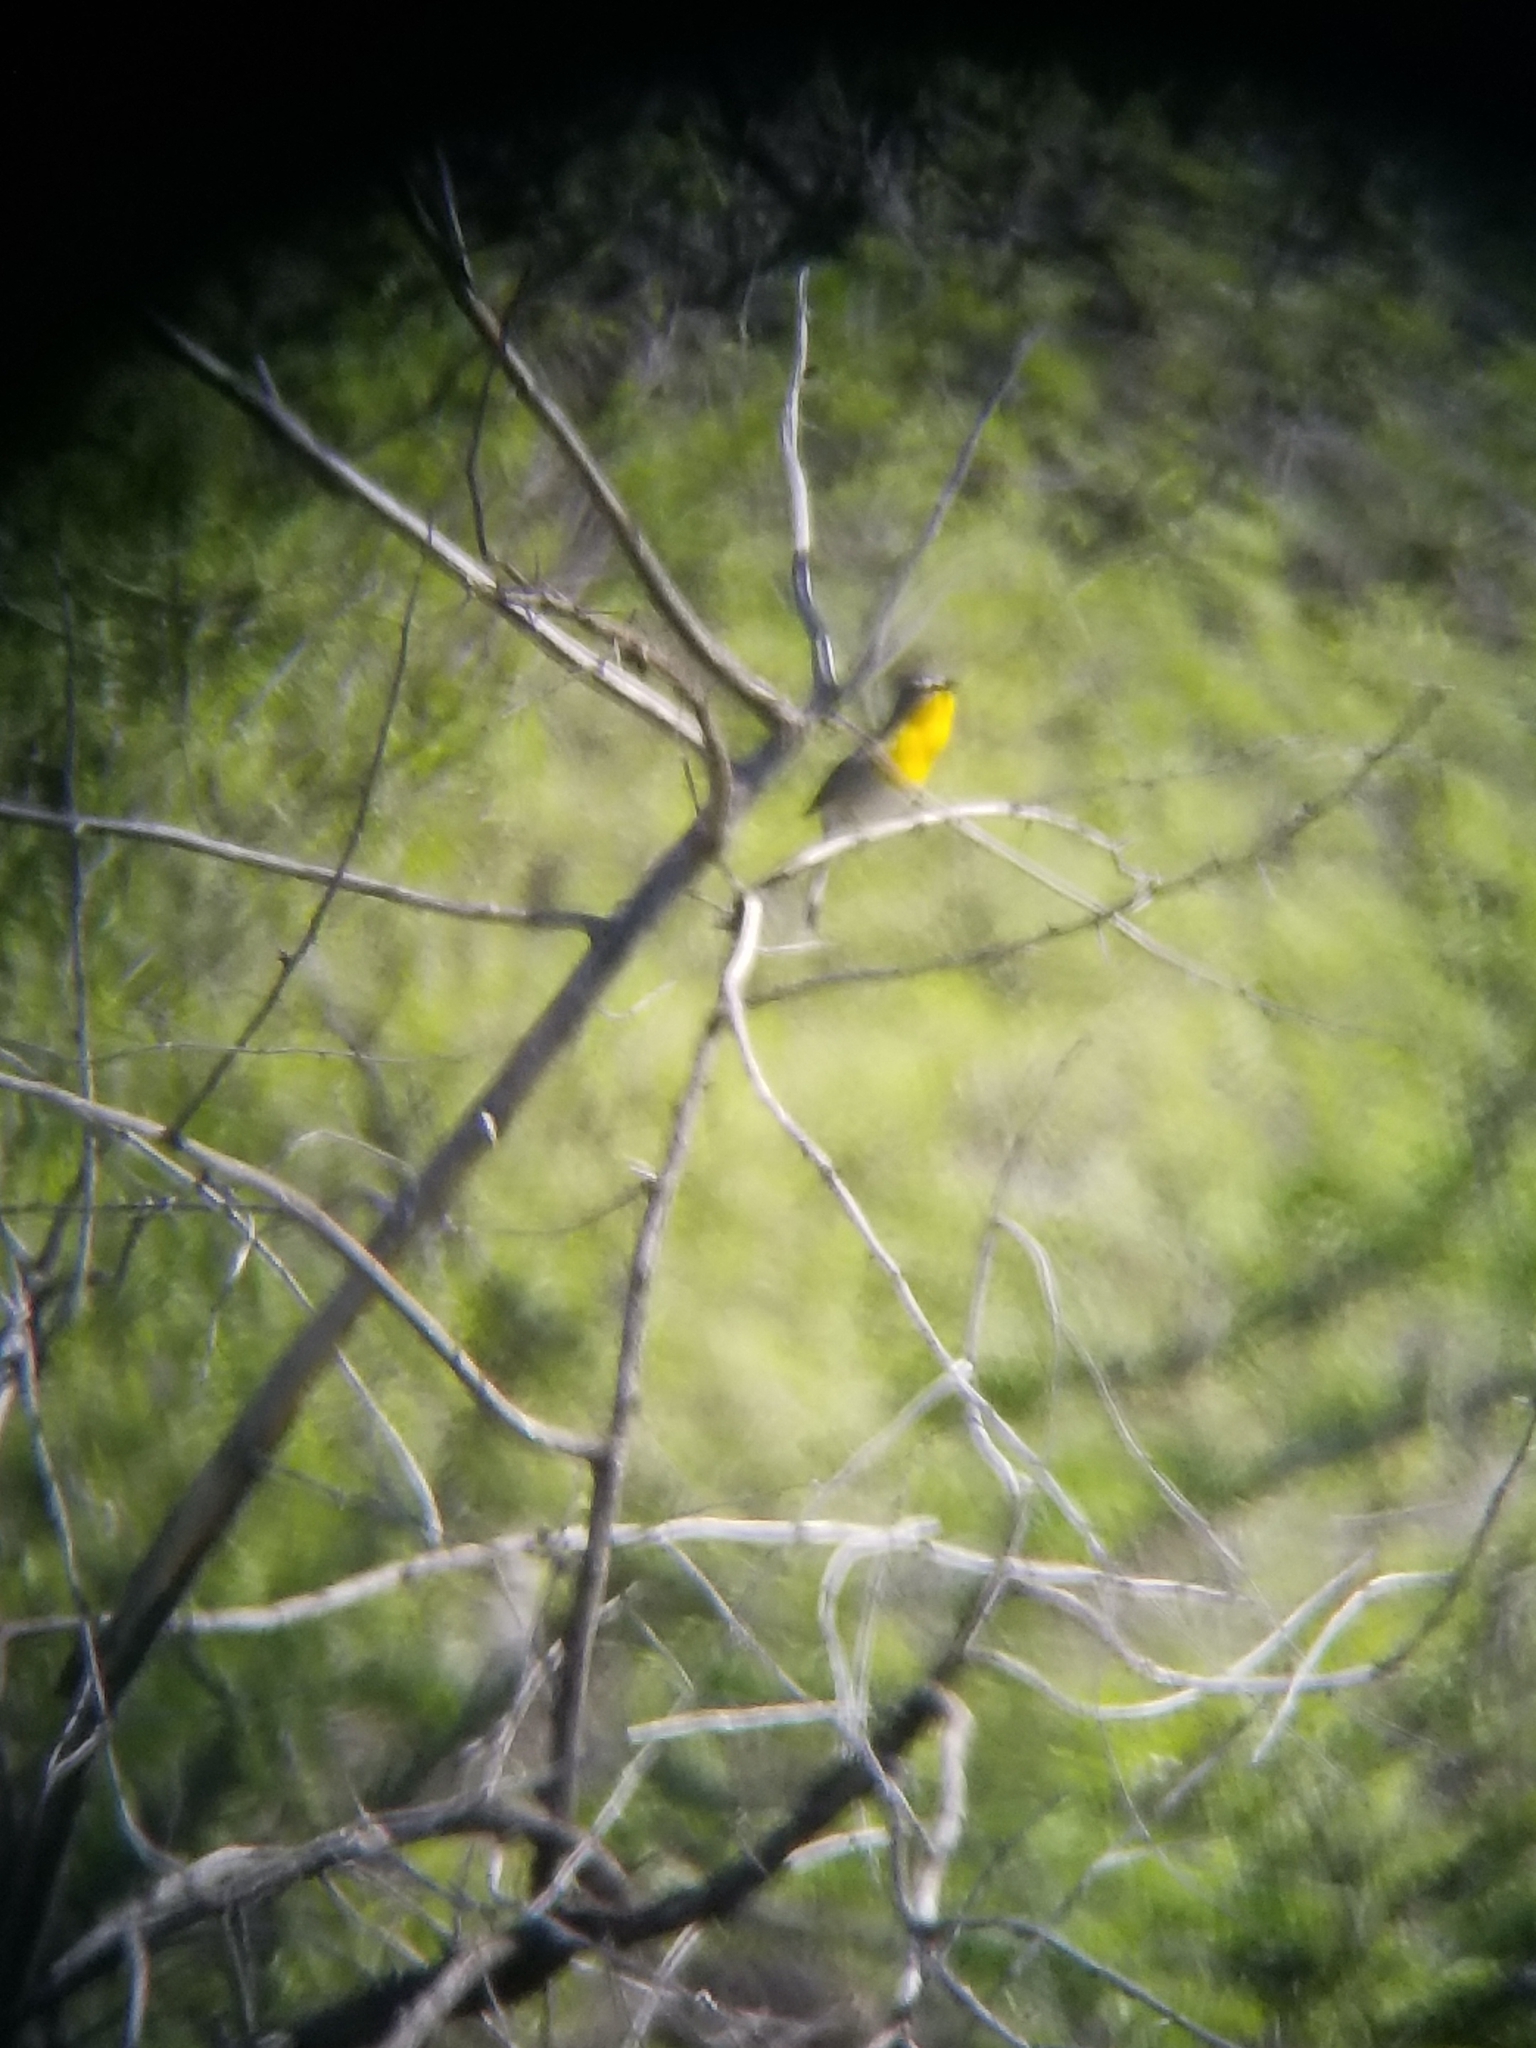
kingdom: Animalia
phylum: Chordata
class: Aves
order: Passeriformes
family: Parulidae
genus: Icteria
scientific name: Icteria virens
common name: Yellow-breasted chat
